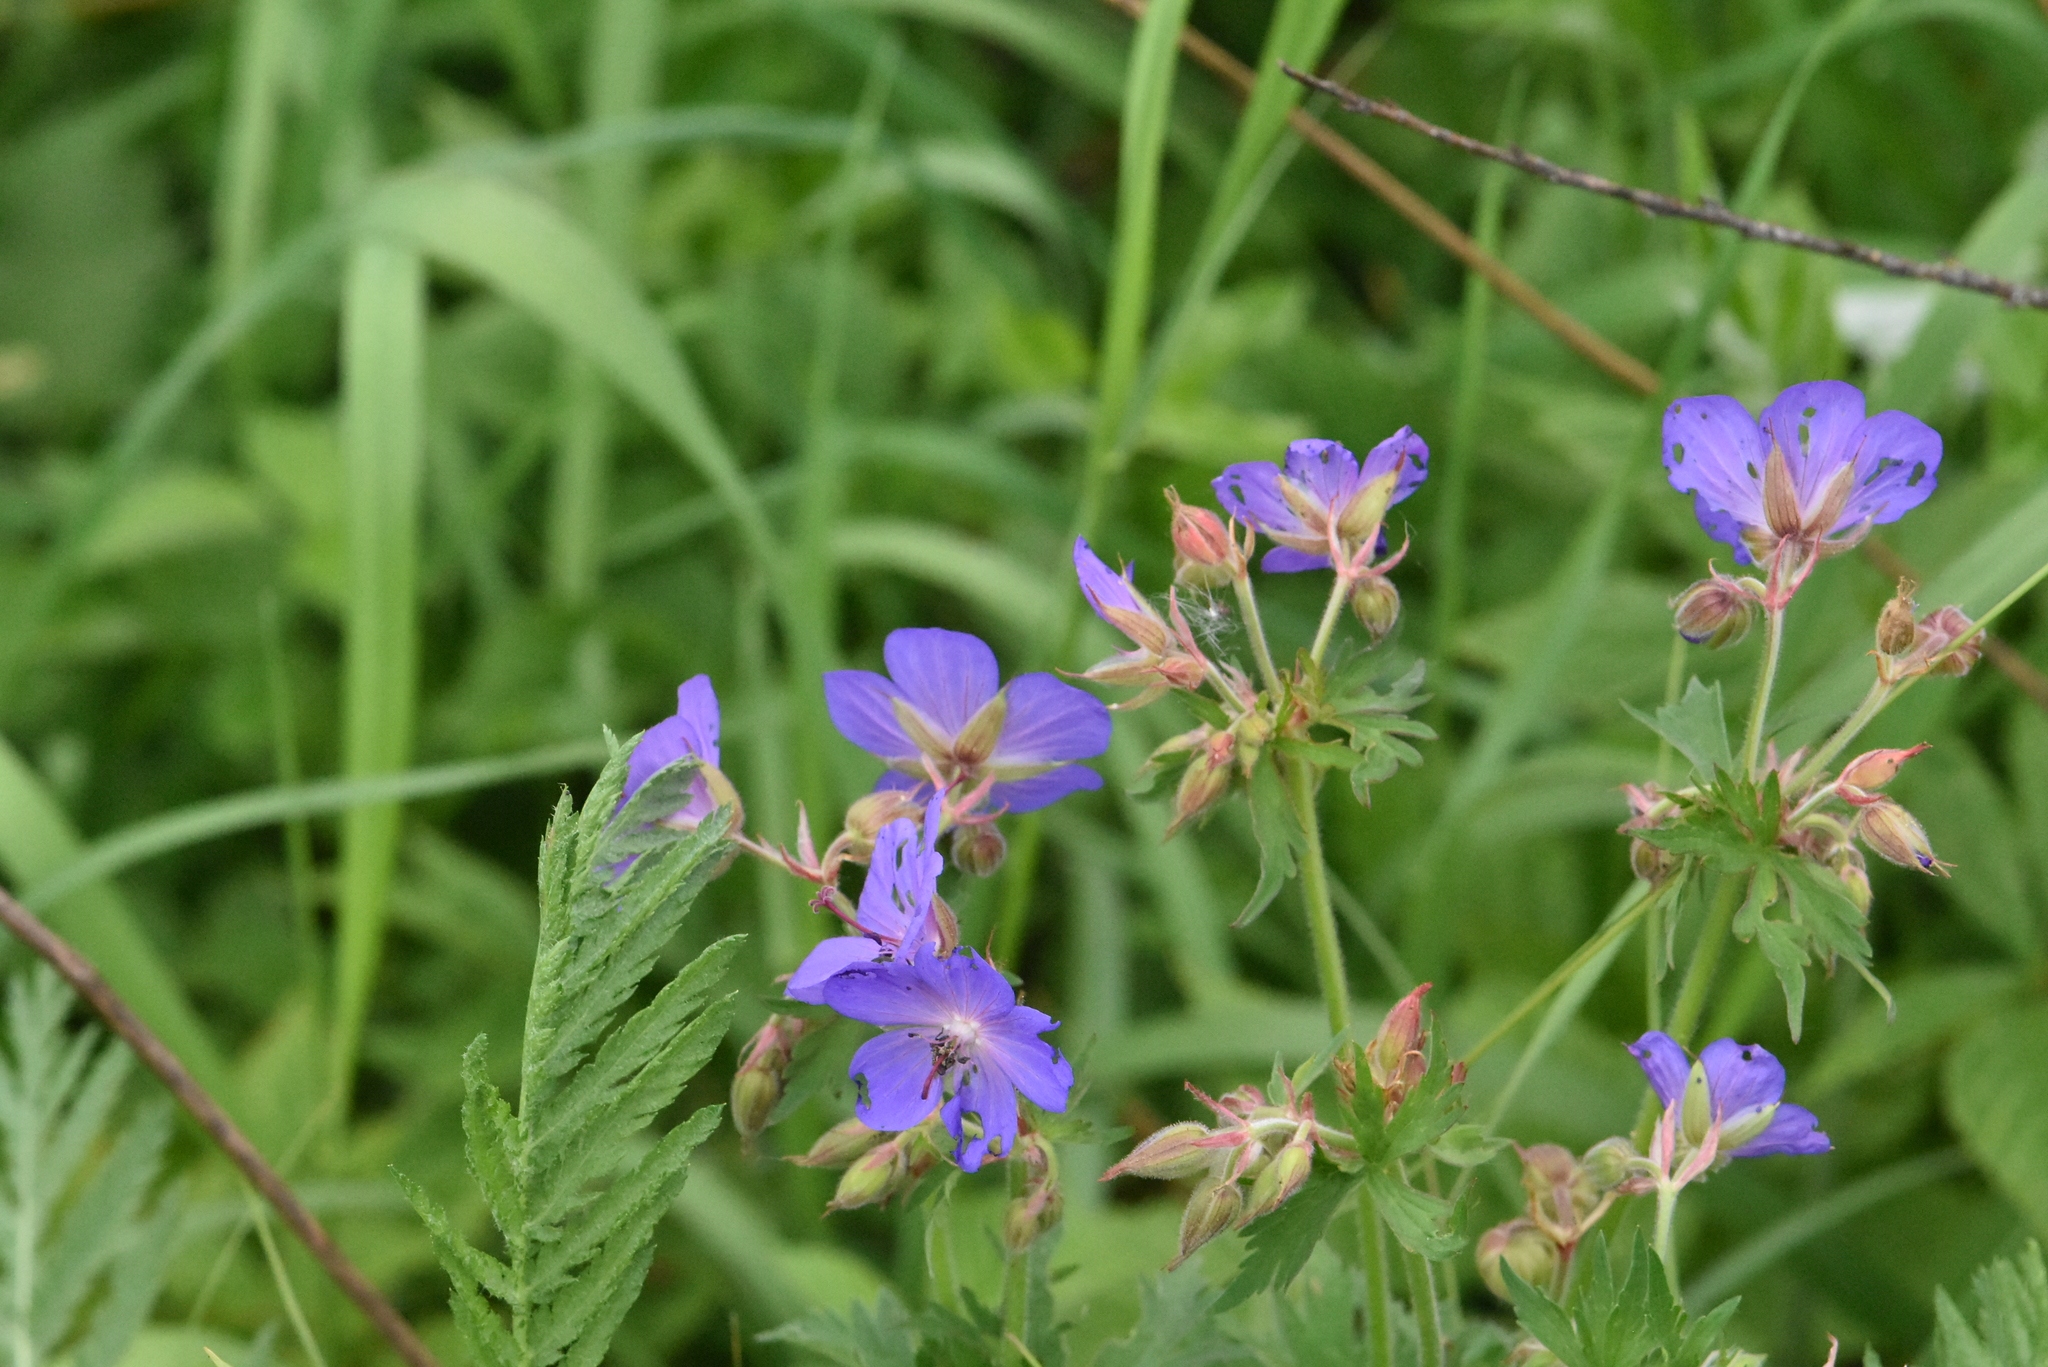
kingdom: Plantae
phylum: Tracheophyta
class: Magnoliopsida
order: Geraniales
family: Geraniaceae
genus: Geranium
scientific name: Geranium pratense
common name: Meadow crane's-bill
